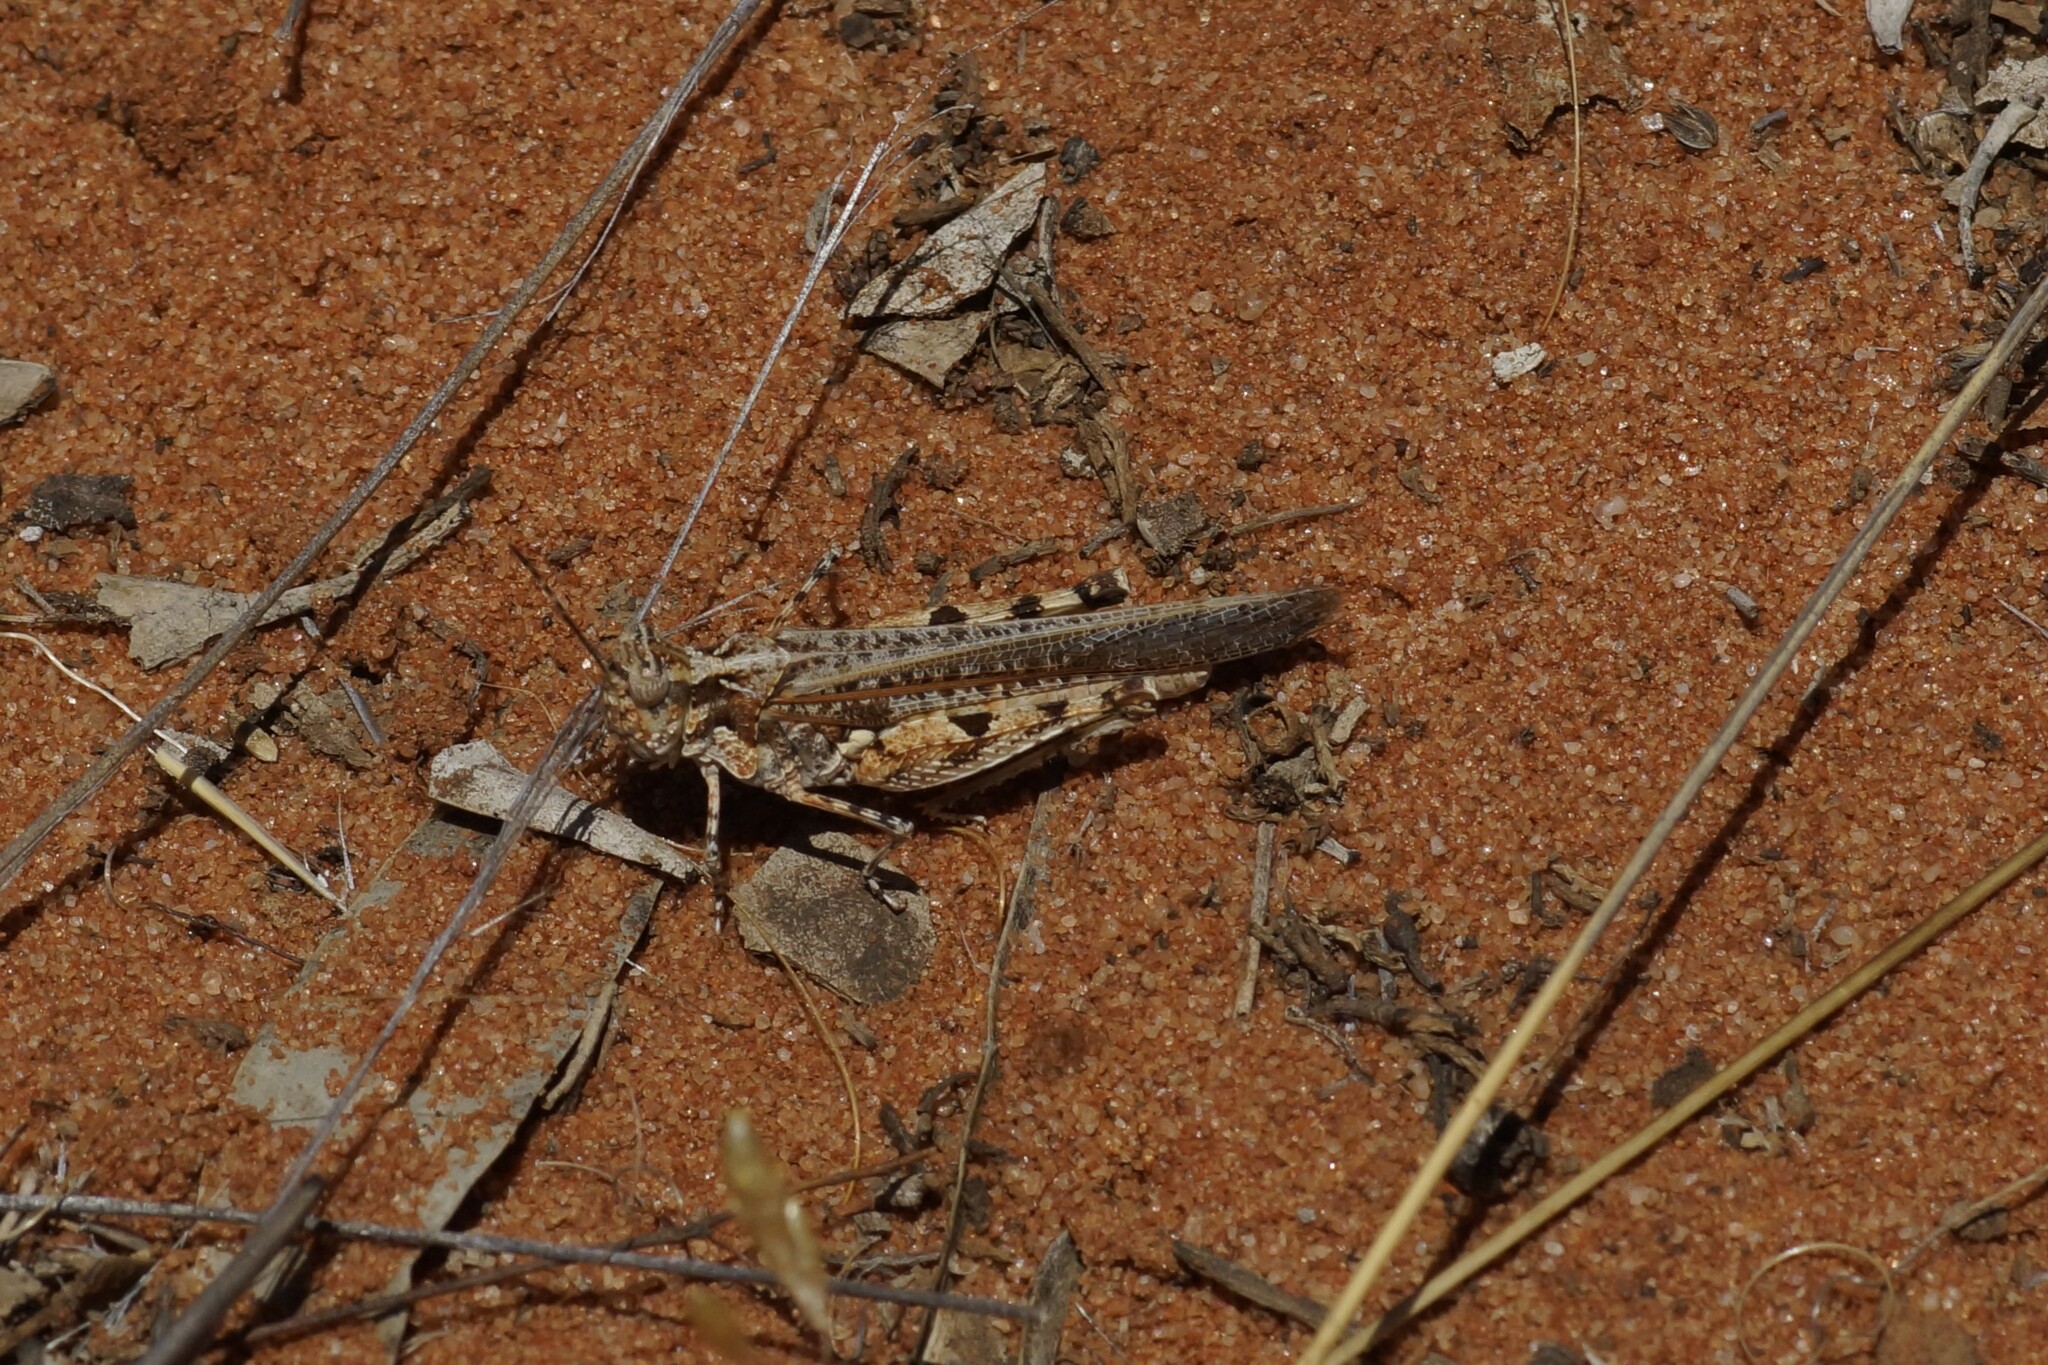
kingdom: Animalia
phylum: Arthropoda
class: Insecta
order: Orthoptera
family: Acrididae
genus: Pycnostictus
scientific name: Pycnostictus seriatus
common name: Common bandwing
